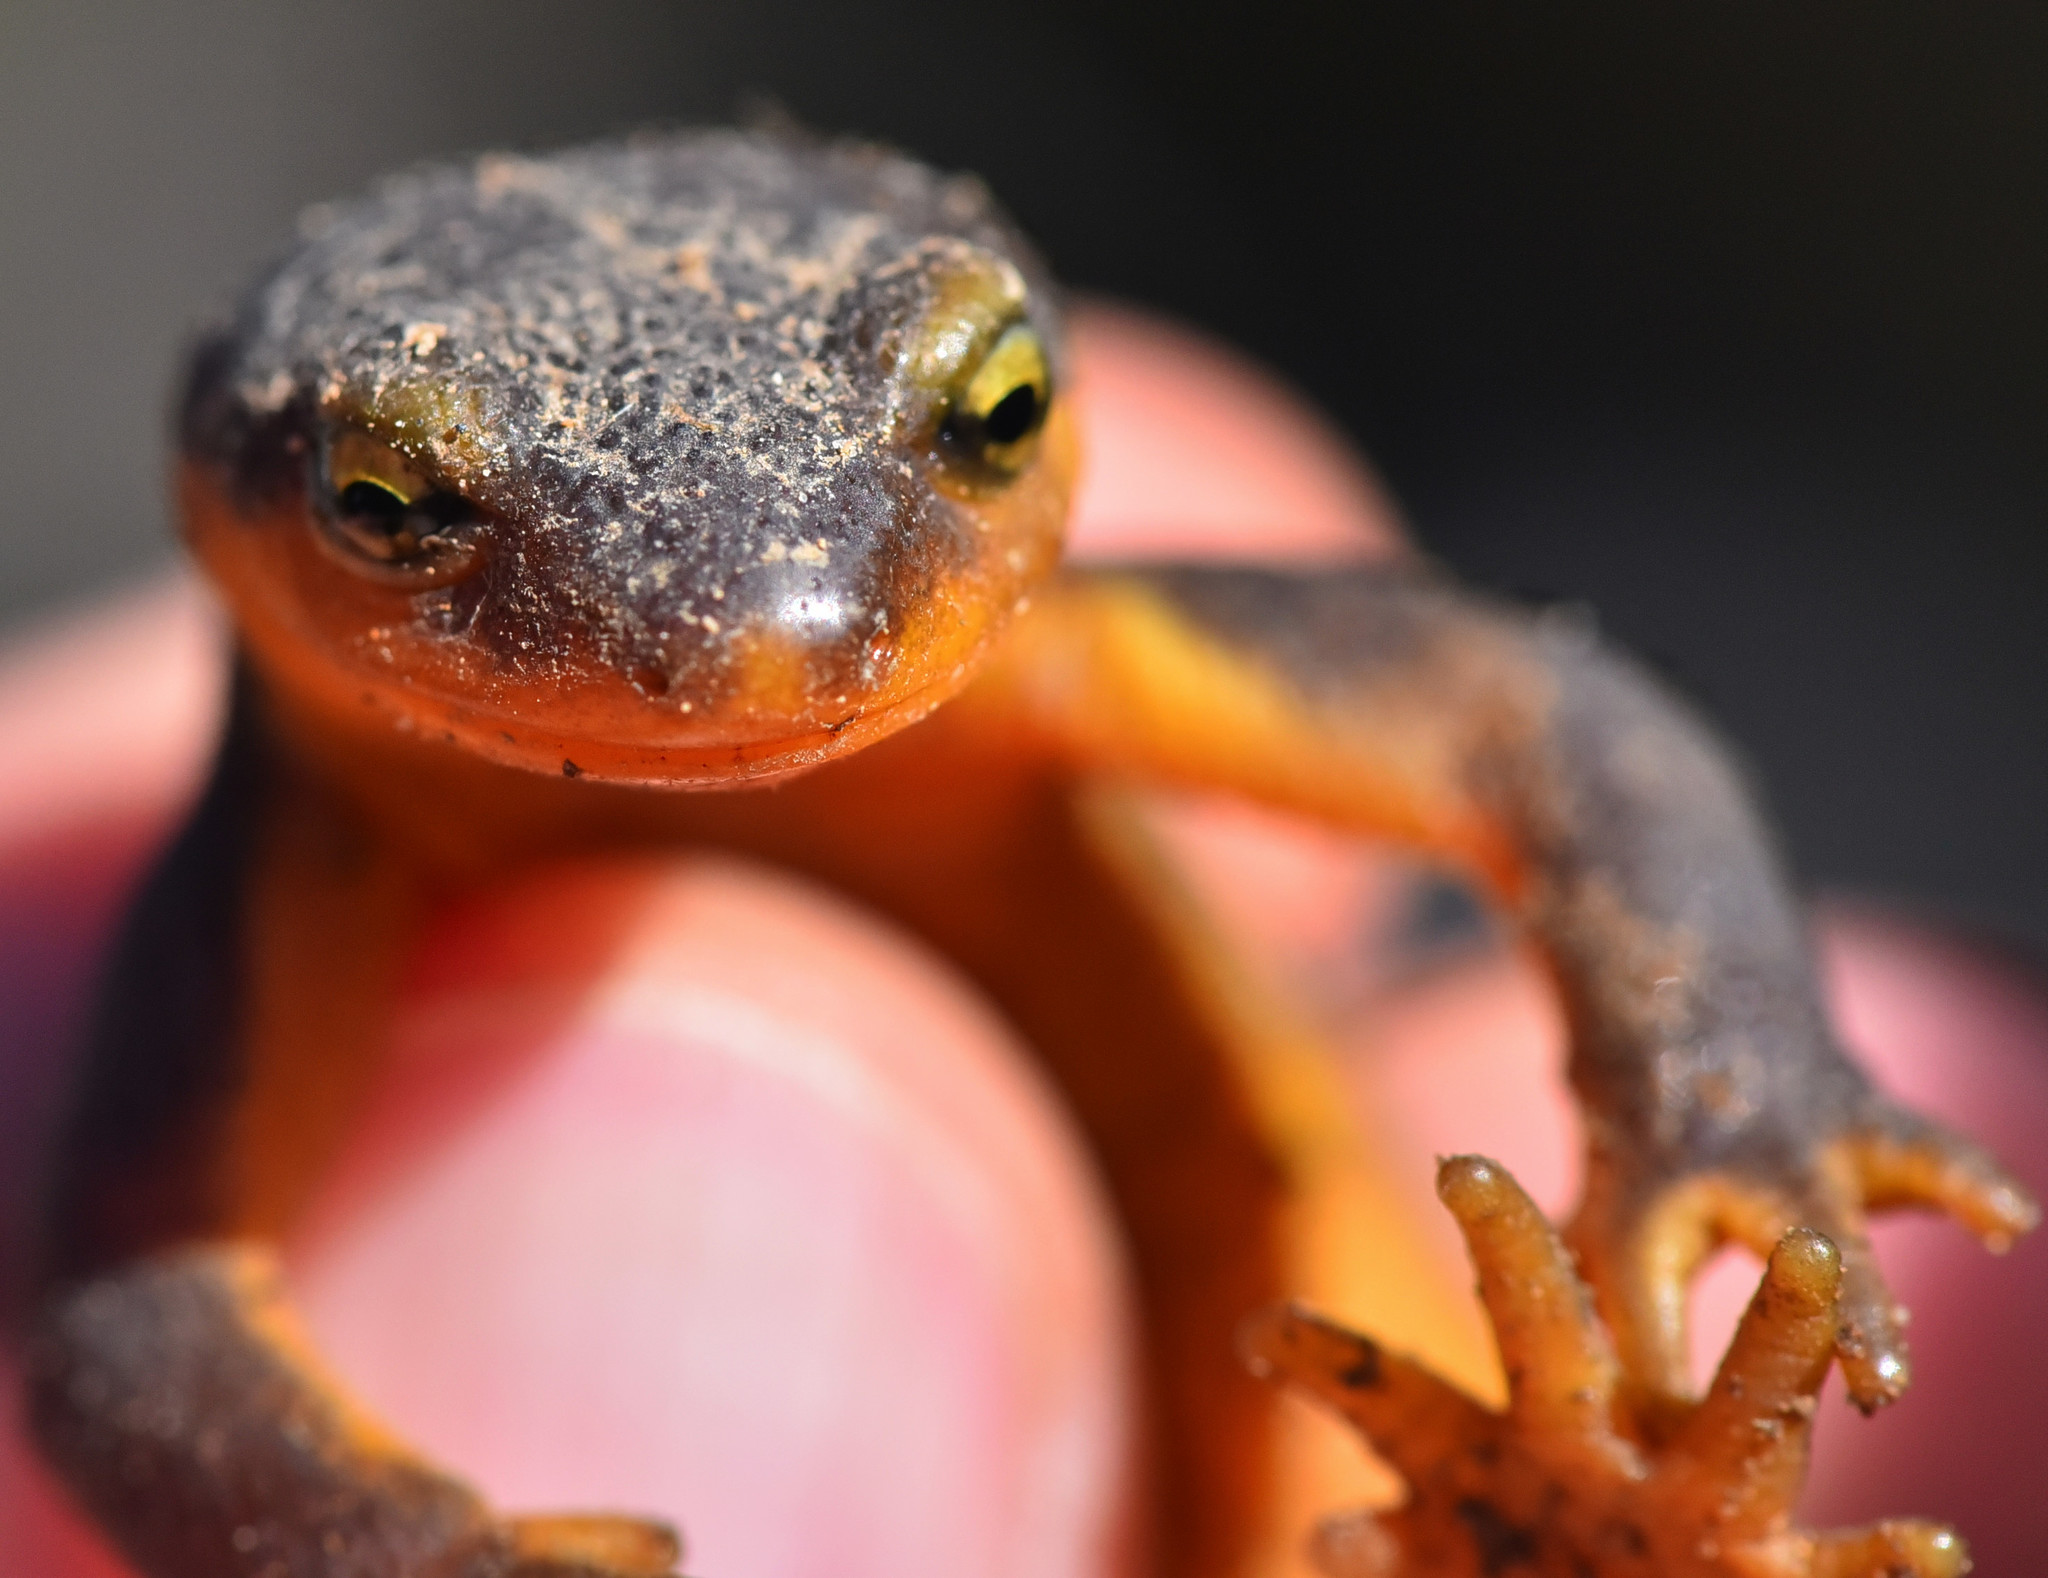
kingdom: Animalia
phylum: Chordata
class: Amphibia
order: Caudata
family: Salamandridae
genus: Taricha
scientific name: Taricha torosa
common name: California newt
